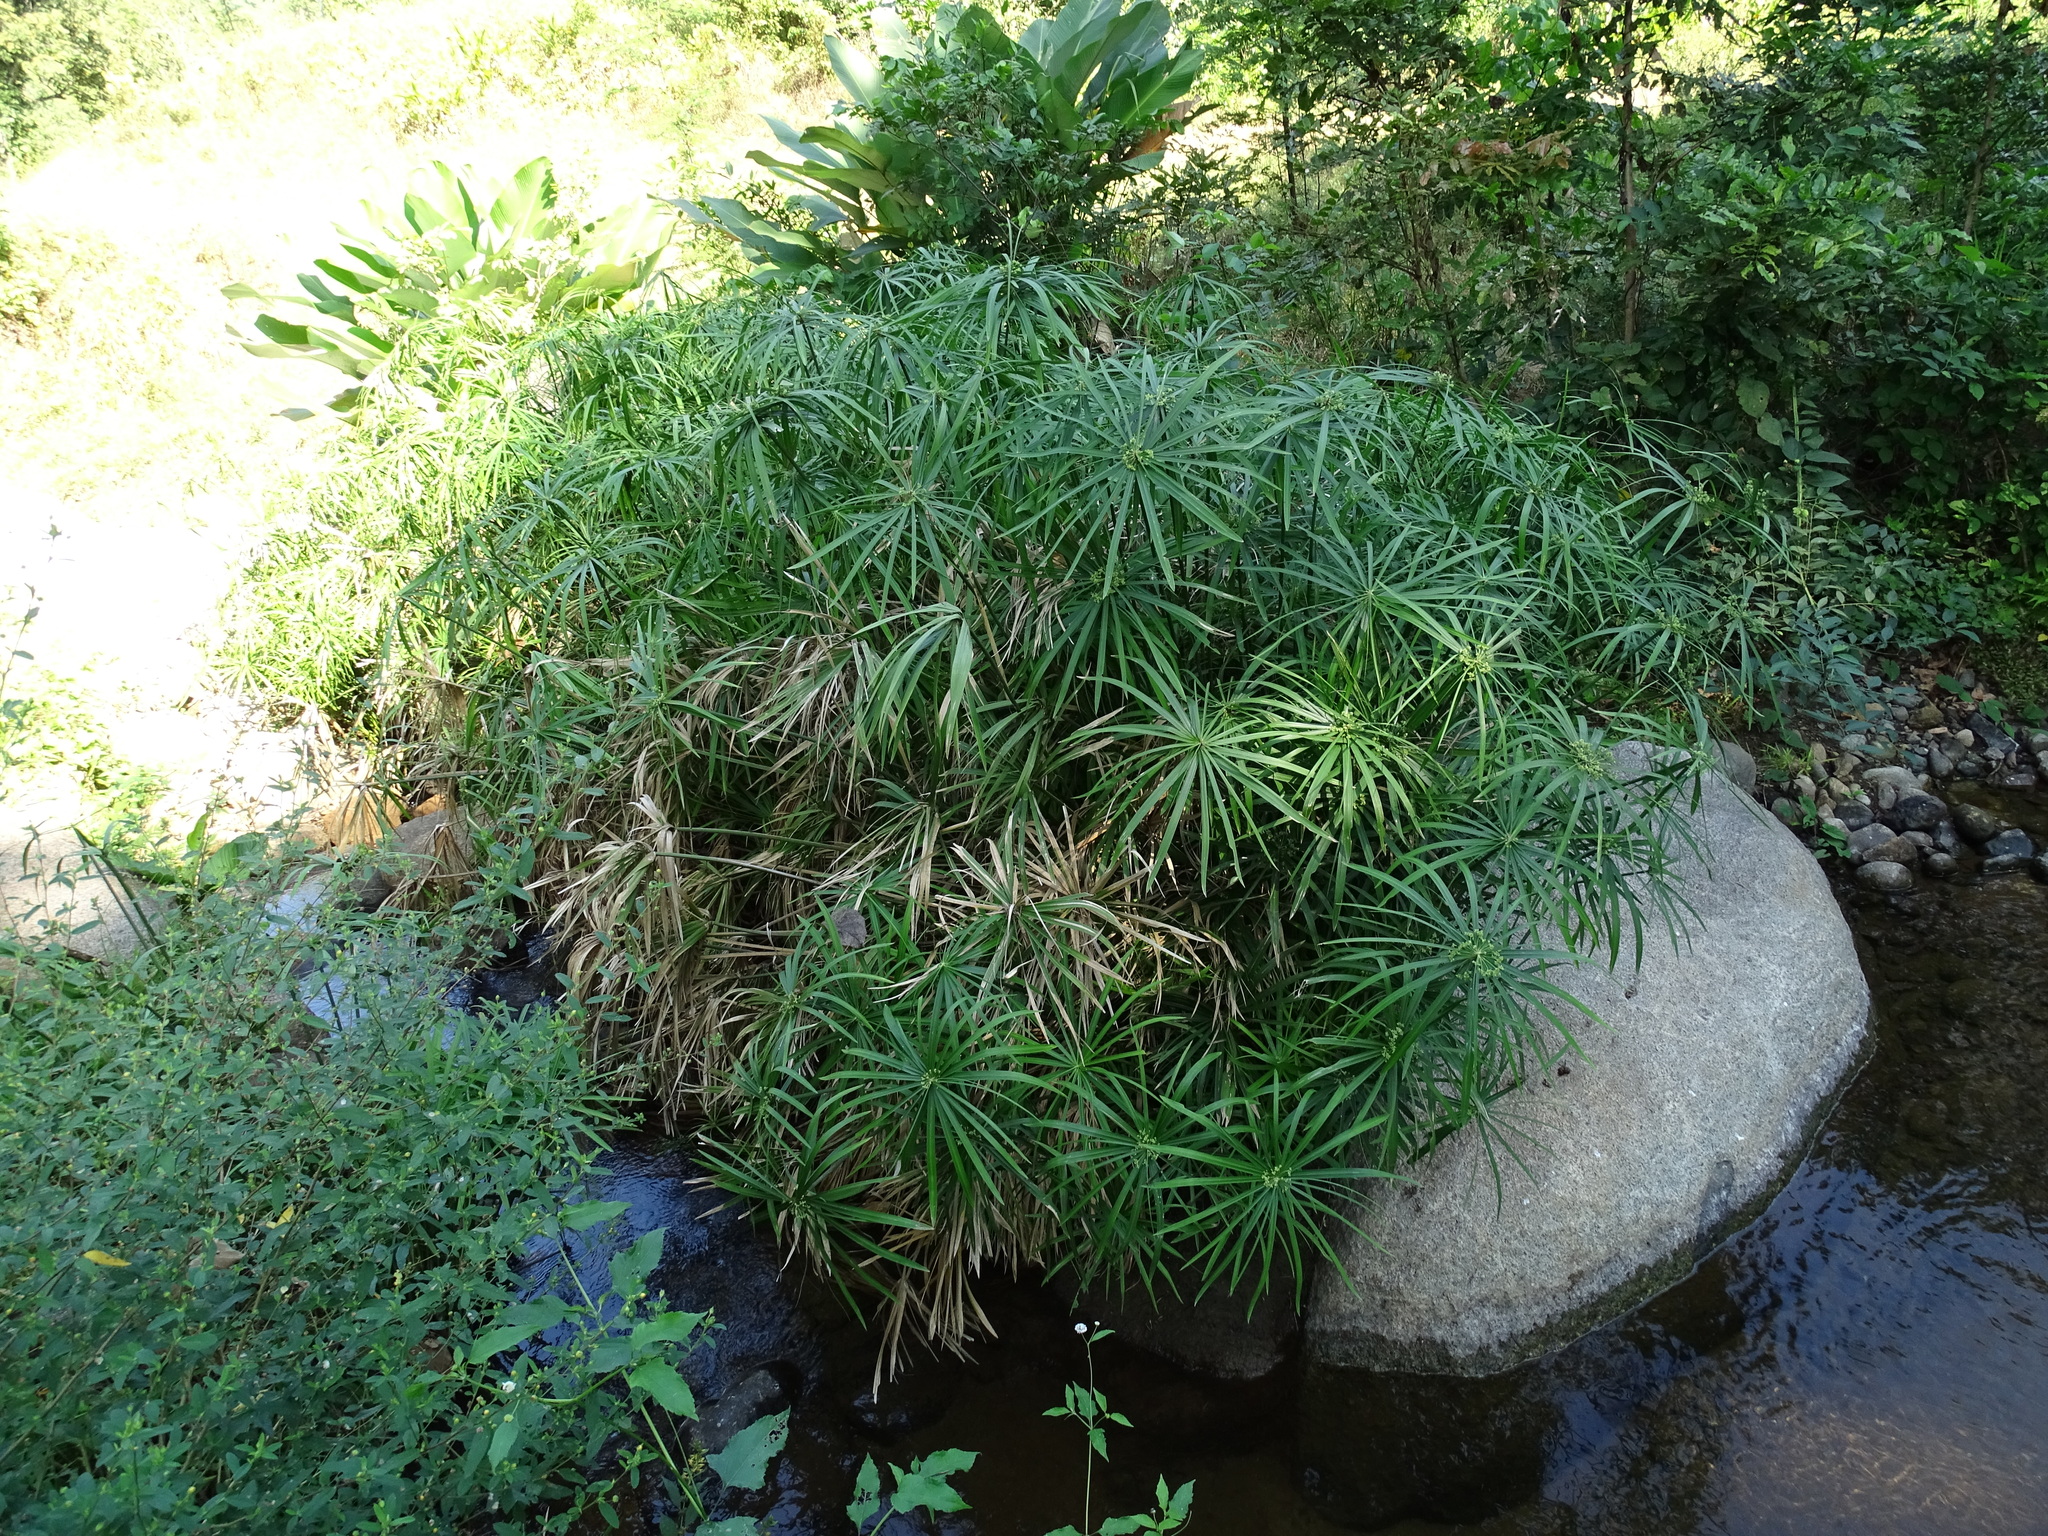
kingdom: Plantae
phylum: Tracheophyta
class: Liliopsida
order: Poales
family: Cyperaceae
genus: Cyperus
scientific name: Cyperus alternifolius
